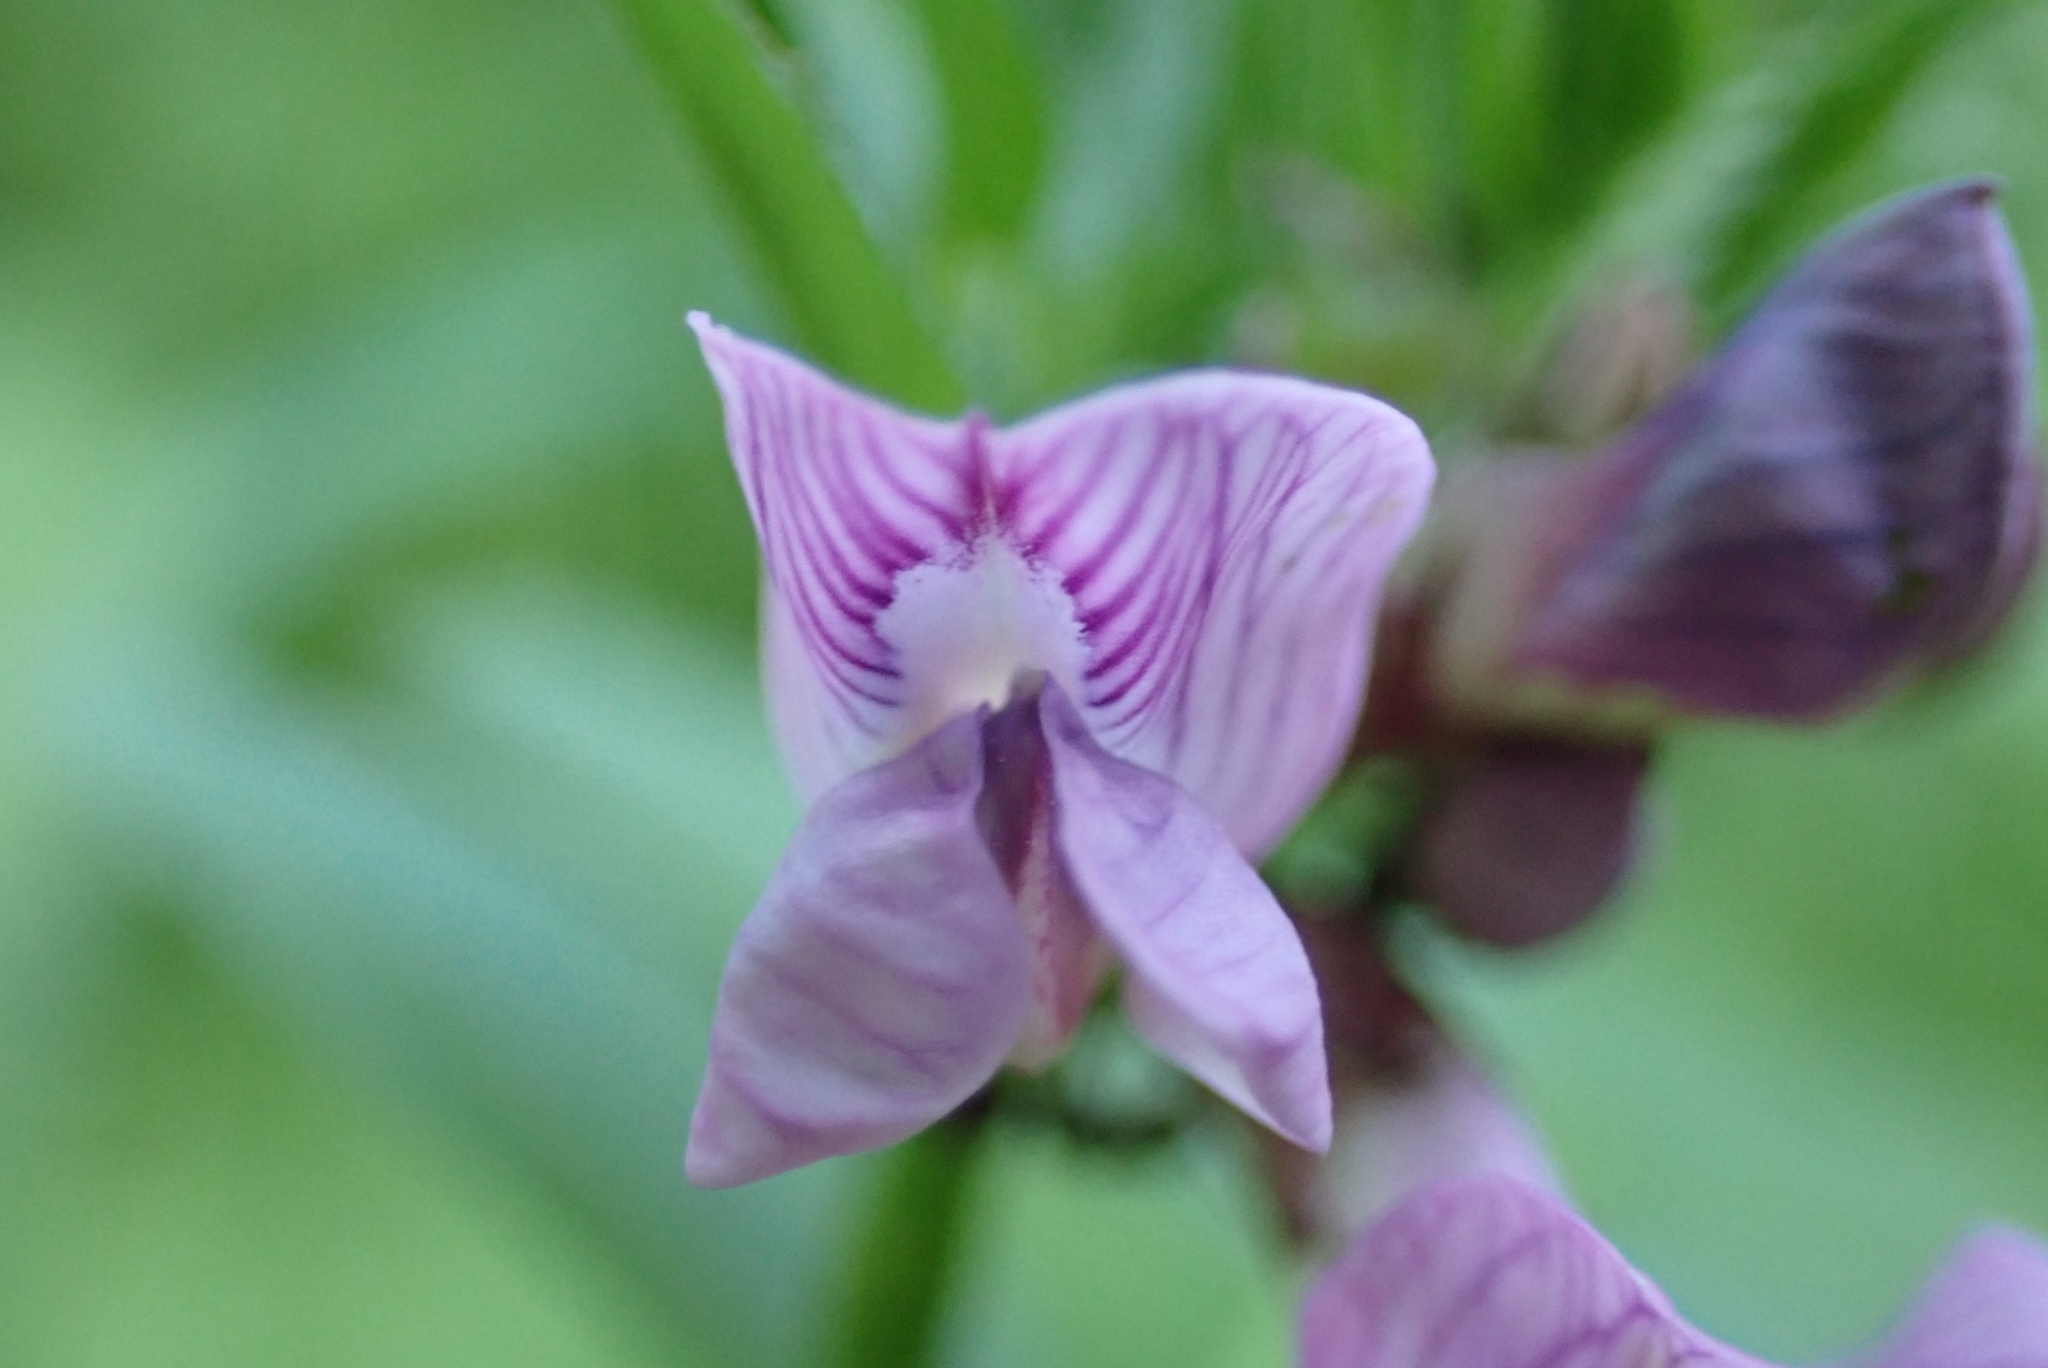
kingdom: Plantae
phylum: Tracheophyta
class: Magnoliopsida
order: Fabales
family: Fabaceae
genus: Vicia
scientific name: Vicia sepium
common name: Bush vetch
